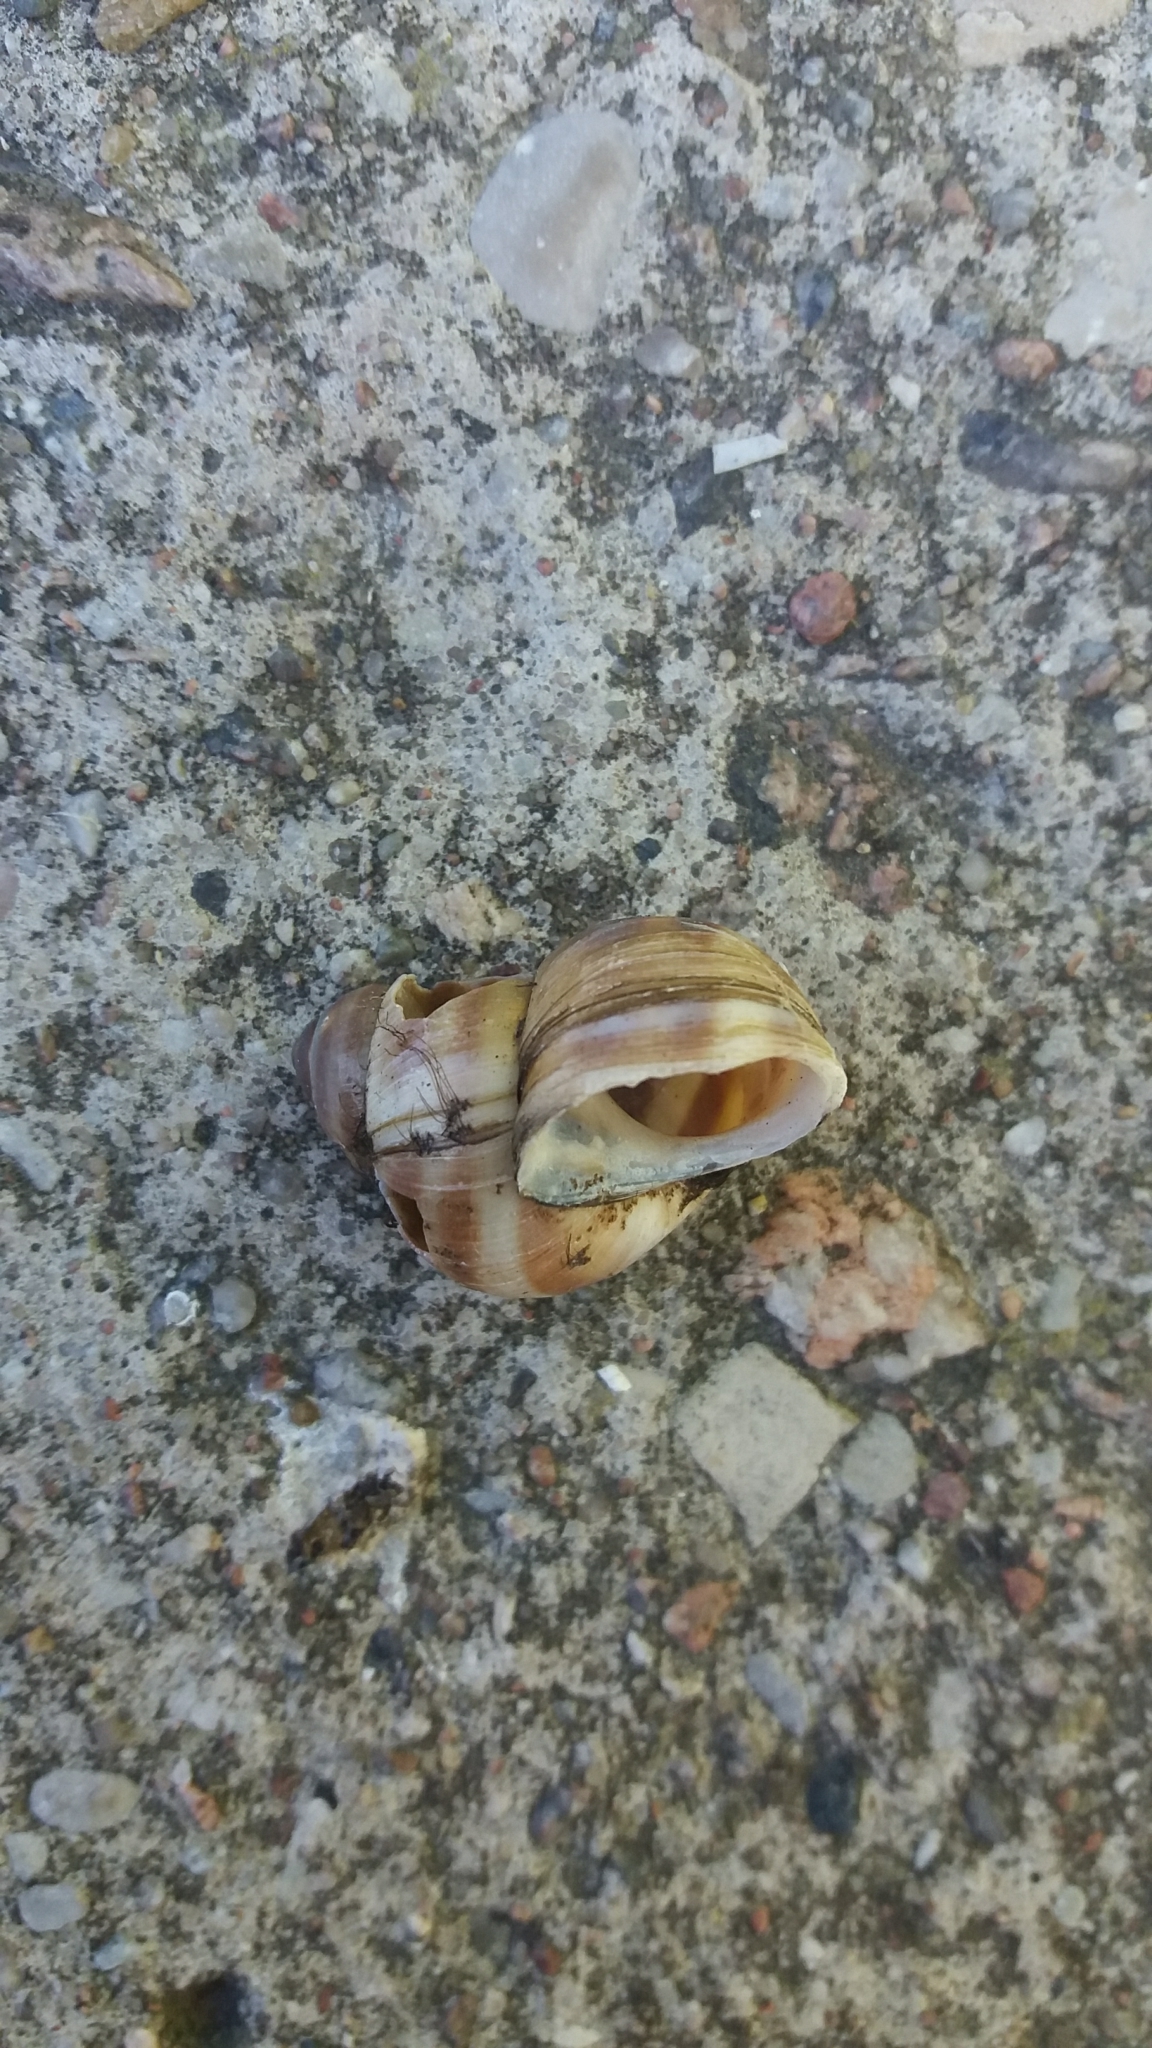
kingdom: Animalia
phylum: Mollusca
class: Gastropoda
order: Architaenioglossa
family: Viviparidae
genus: Viviparus
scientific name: Viviparus viviparus
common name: River snail
